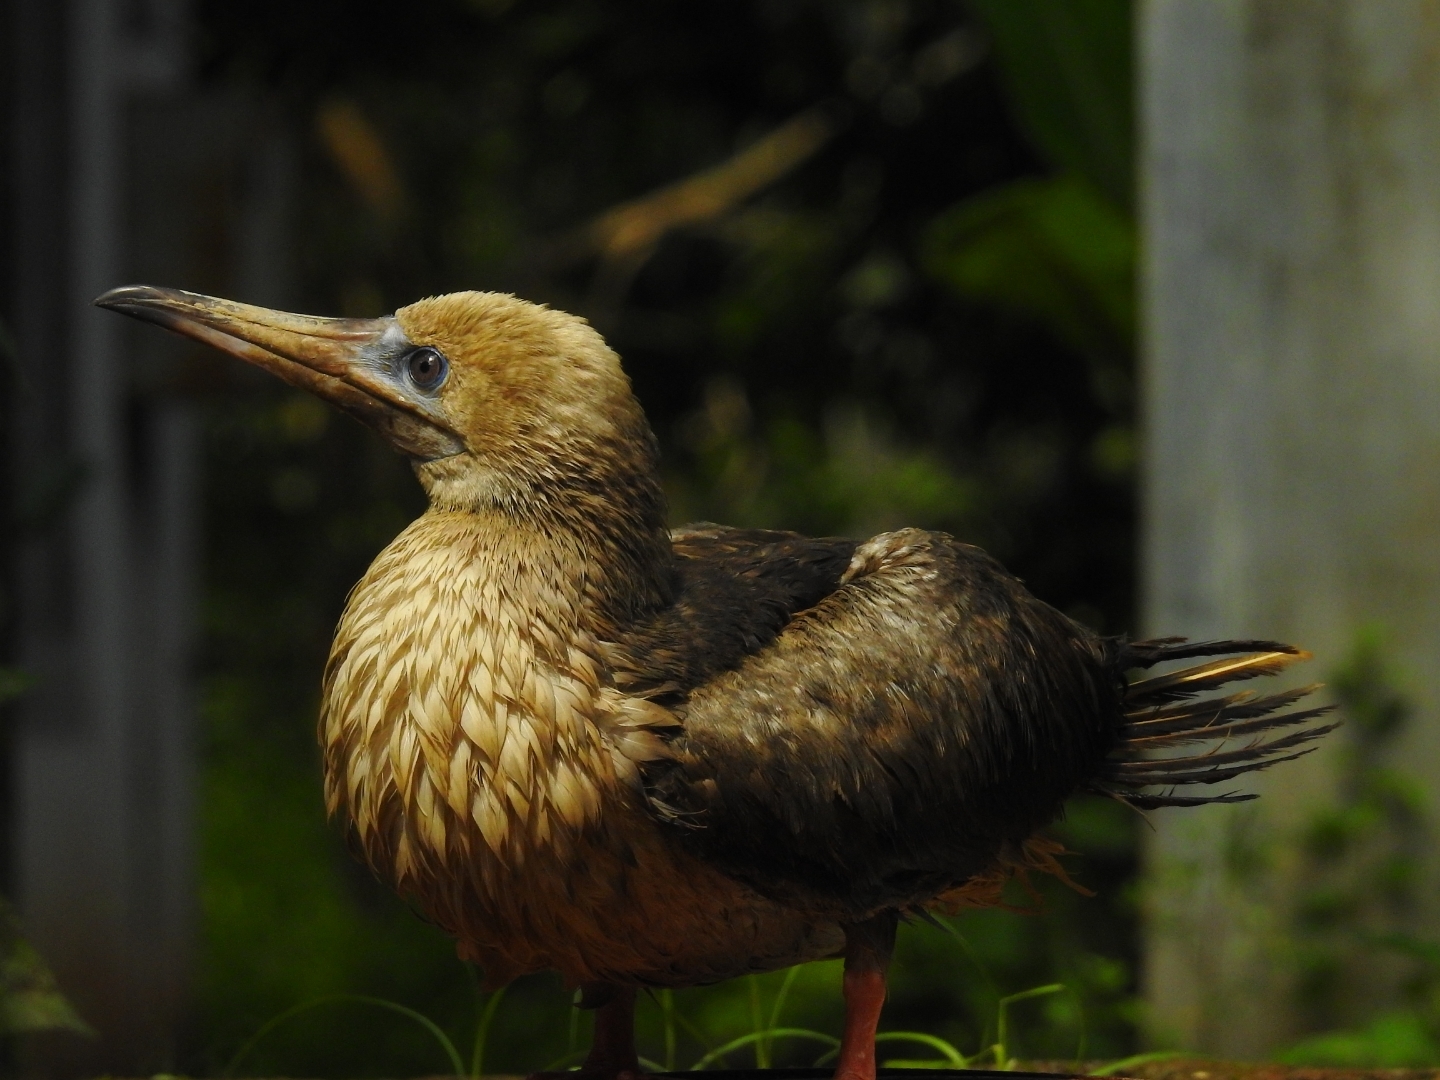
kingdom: Animalia
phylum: Chordata
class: Aves
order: Suliformes
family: Sulidae
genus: Sula
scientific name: Sula sula
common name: Red-footed booby
